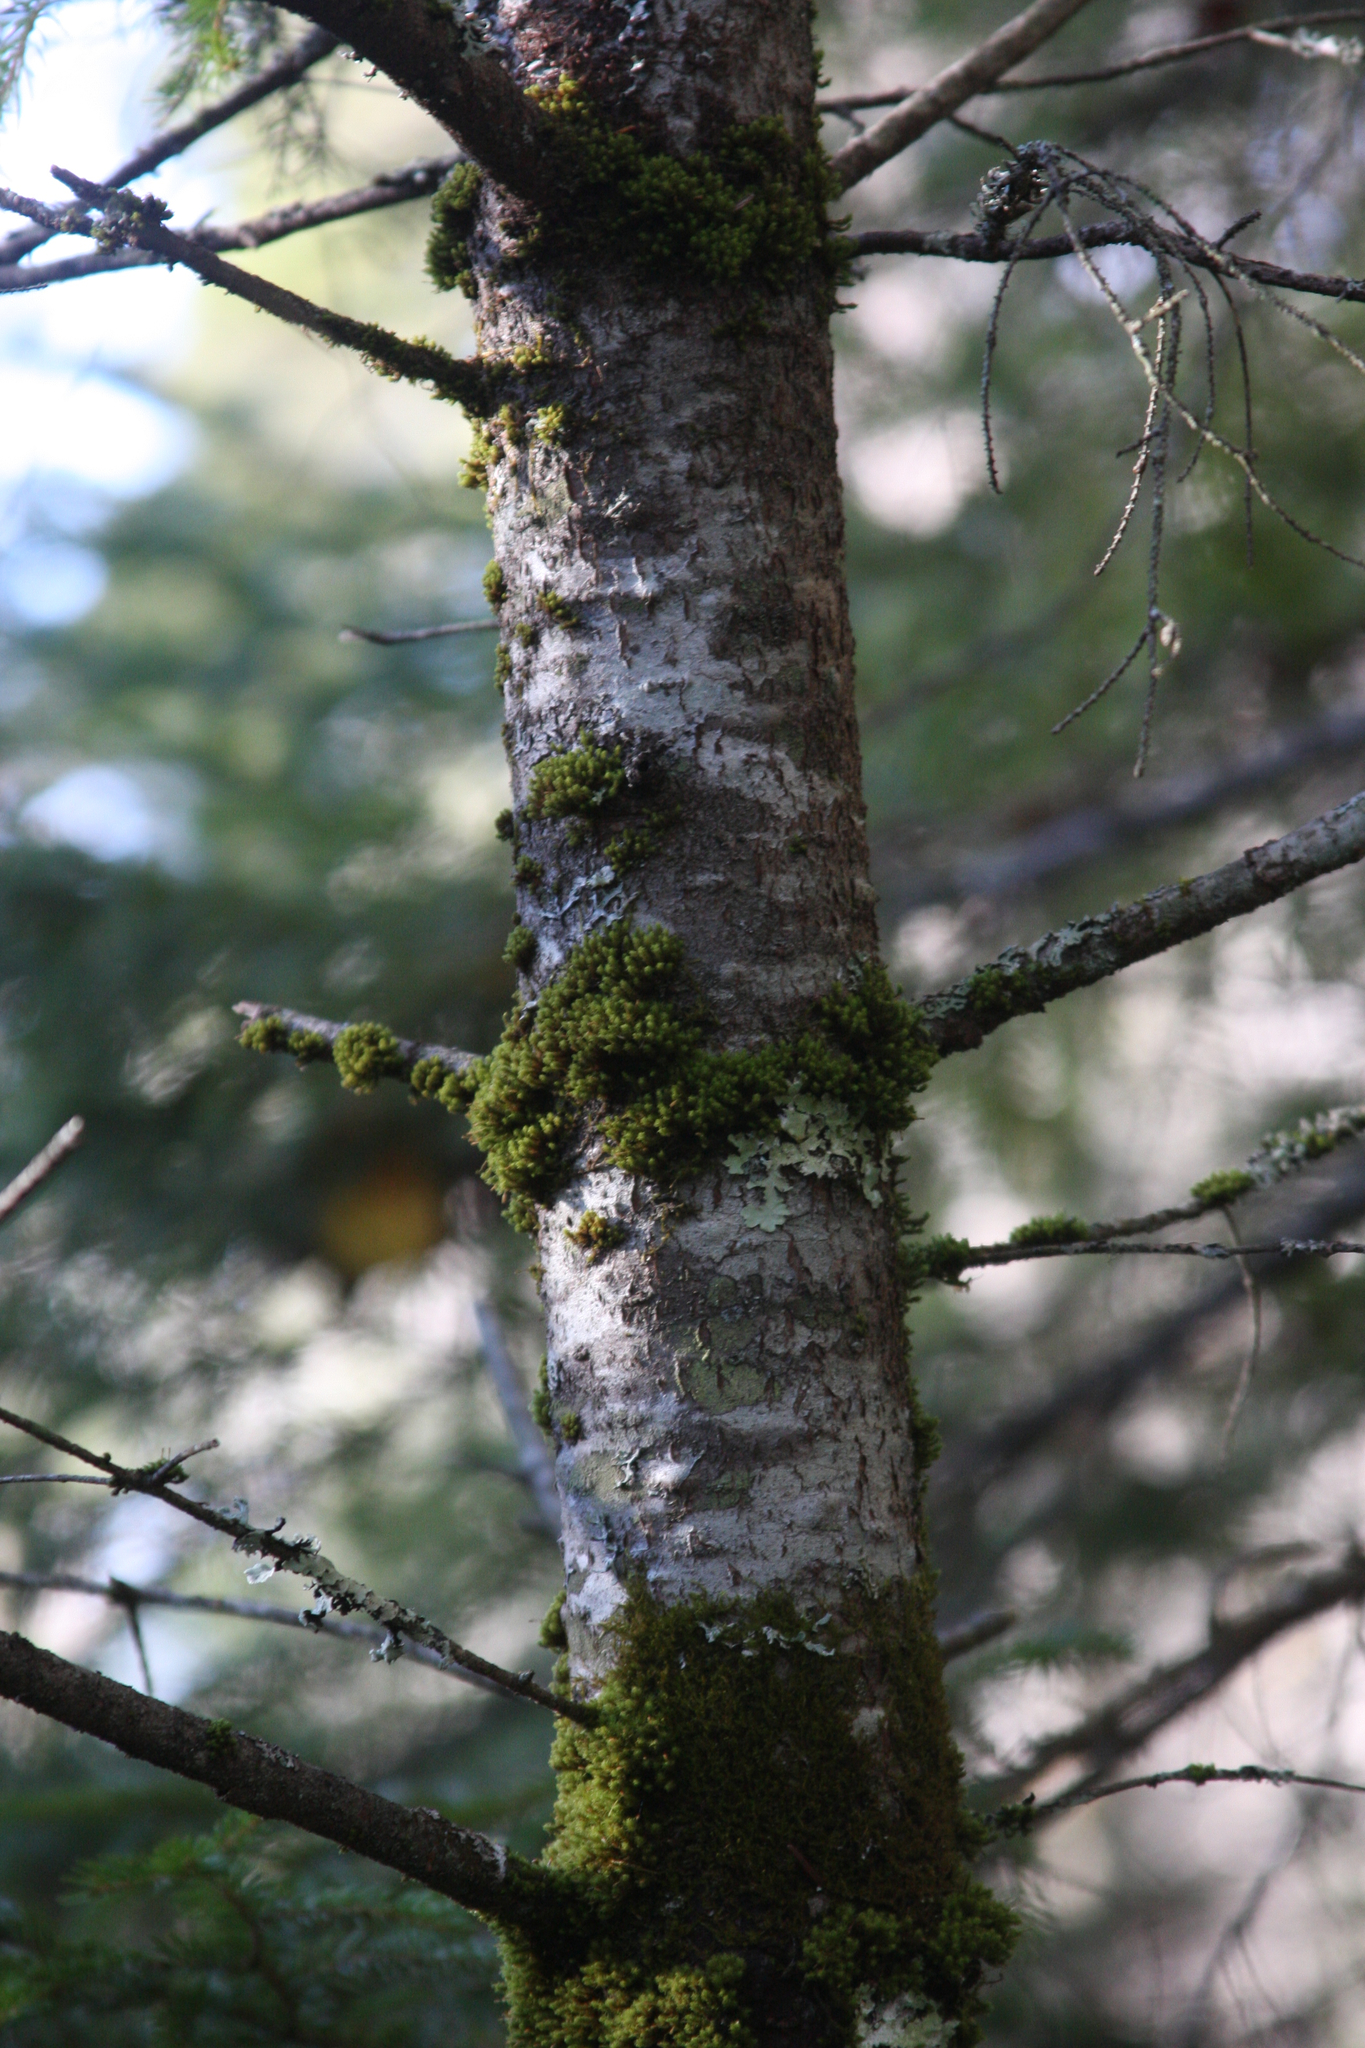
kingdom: Plantae
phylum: Bryophyta
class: Bryopsida
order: Orthotrichales
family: Orthotrichaceae
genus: Ulota
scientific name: Ulota crispa
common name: Crisped pincushion moss
